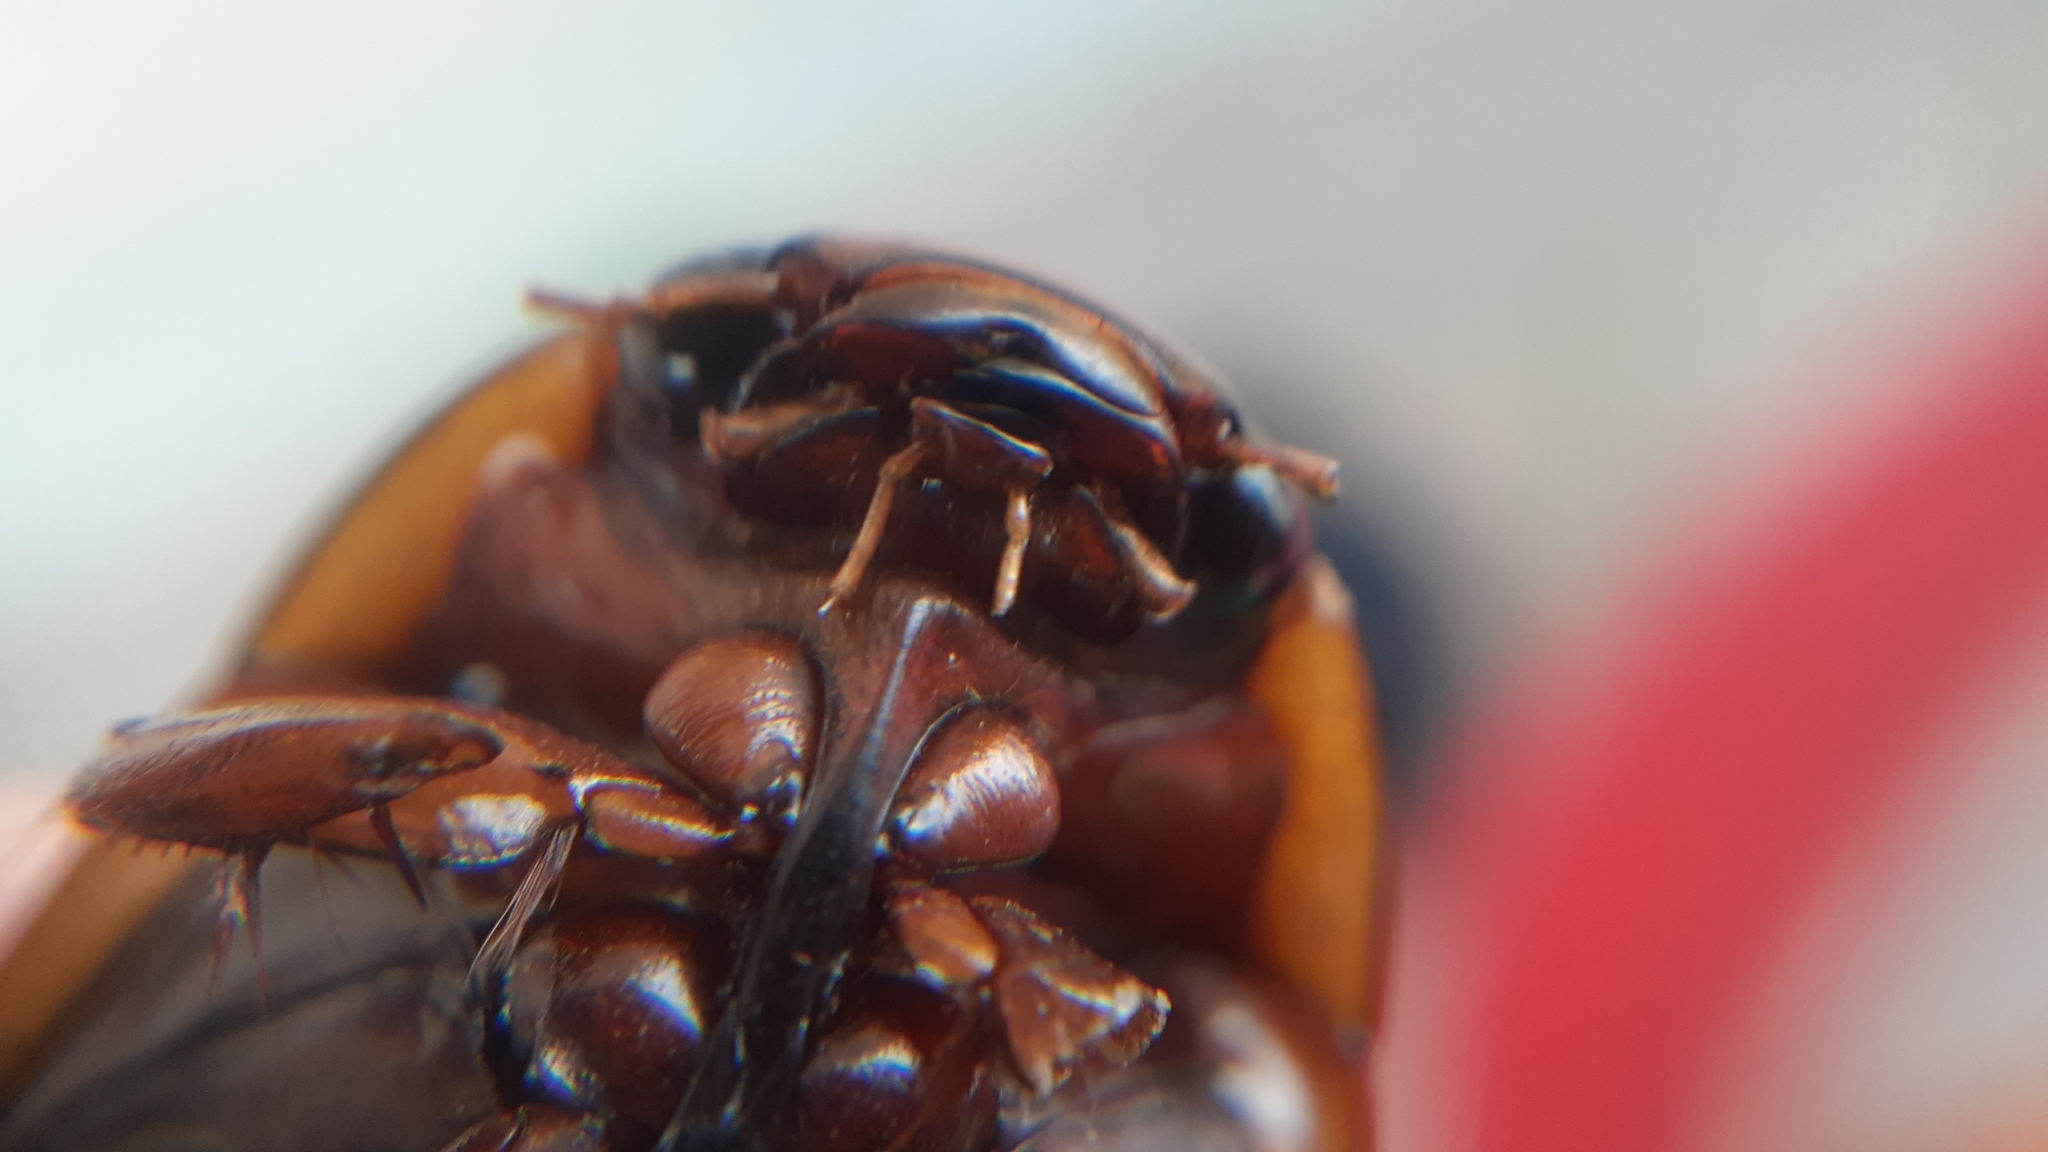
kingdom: Animalia
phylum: Arthropoda
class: Insecta
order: Coleoptera
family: Dytiscidae
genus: Dytiscus
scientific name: Dytiscus verticalis
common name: Vertical diving beetle
